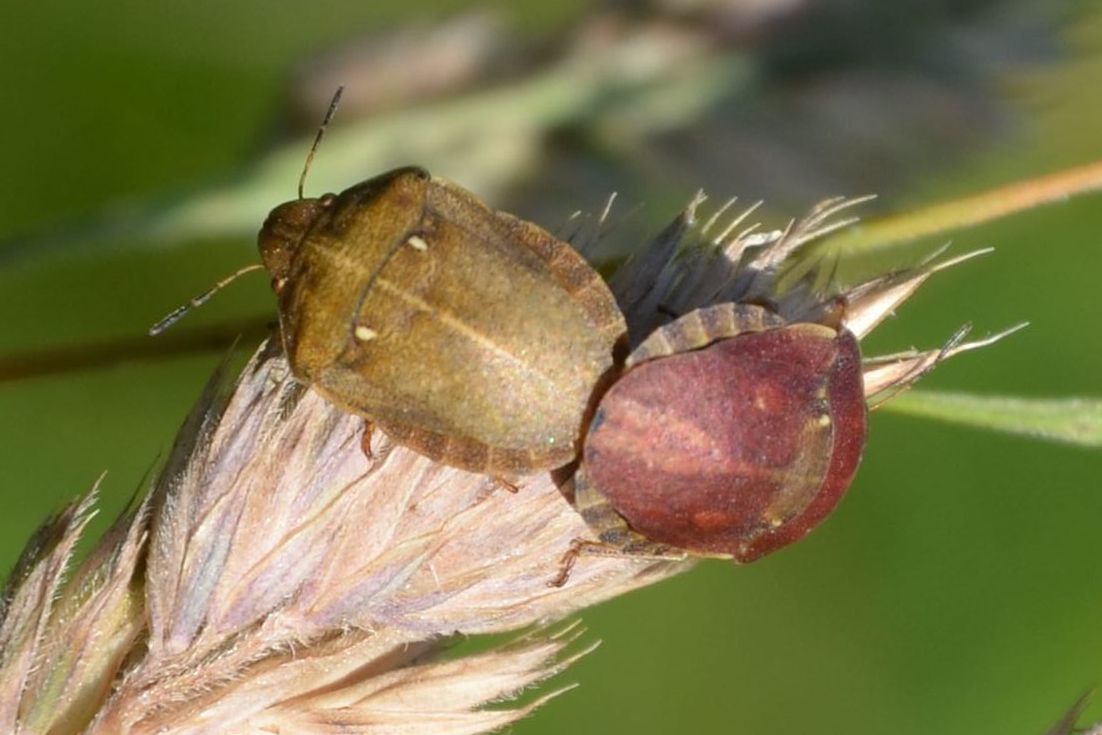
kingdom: Animalia
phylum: Arthropoda
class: Insecta
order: Hemiptera
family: Scutelleridae
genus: Eurygaster
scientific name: Eurygaster testudinaria
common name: Tortoise bug
